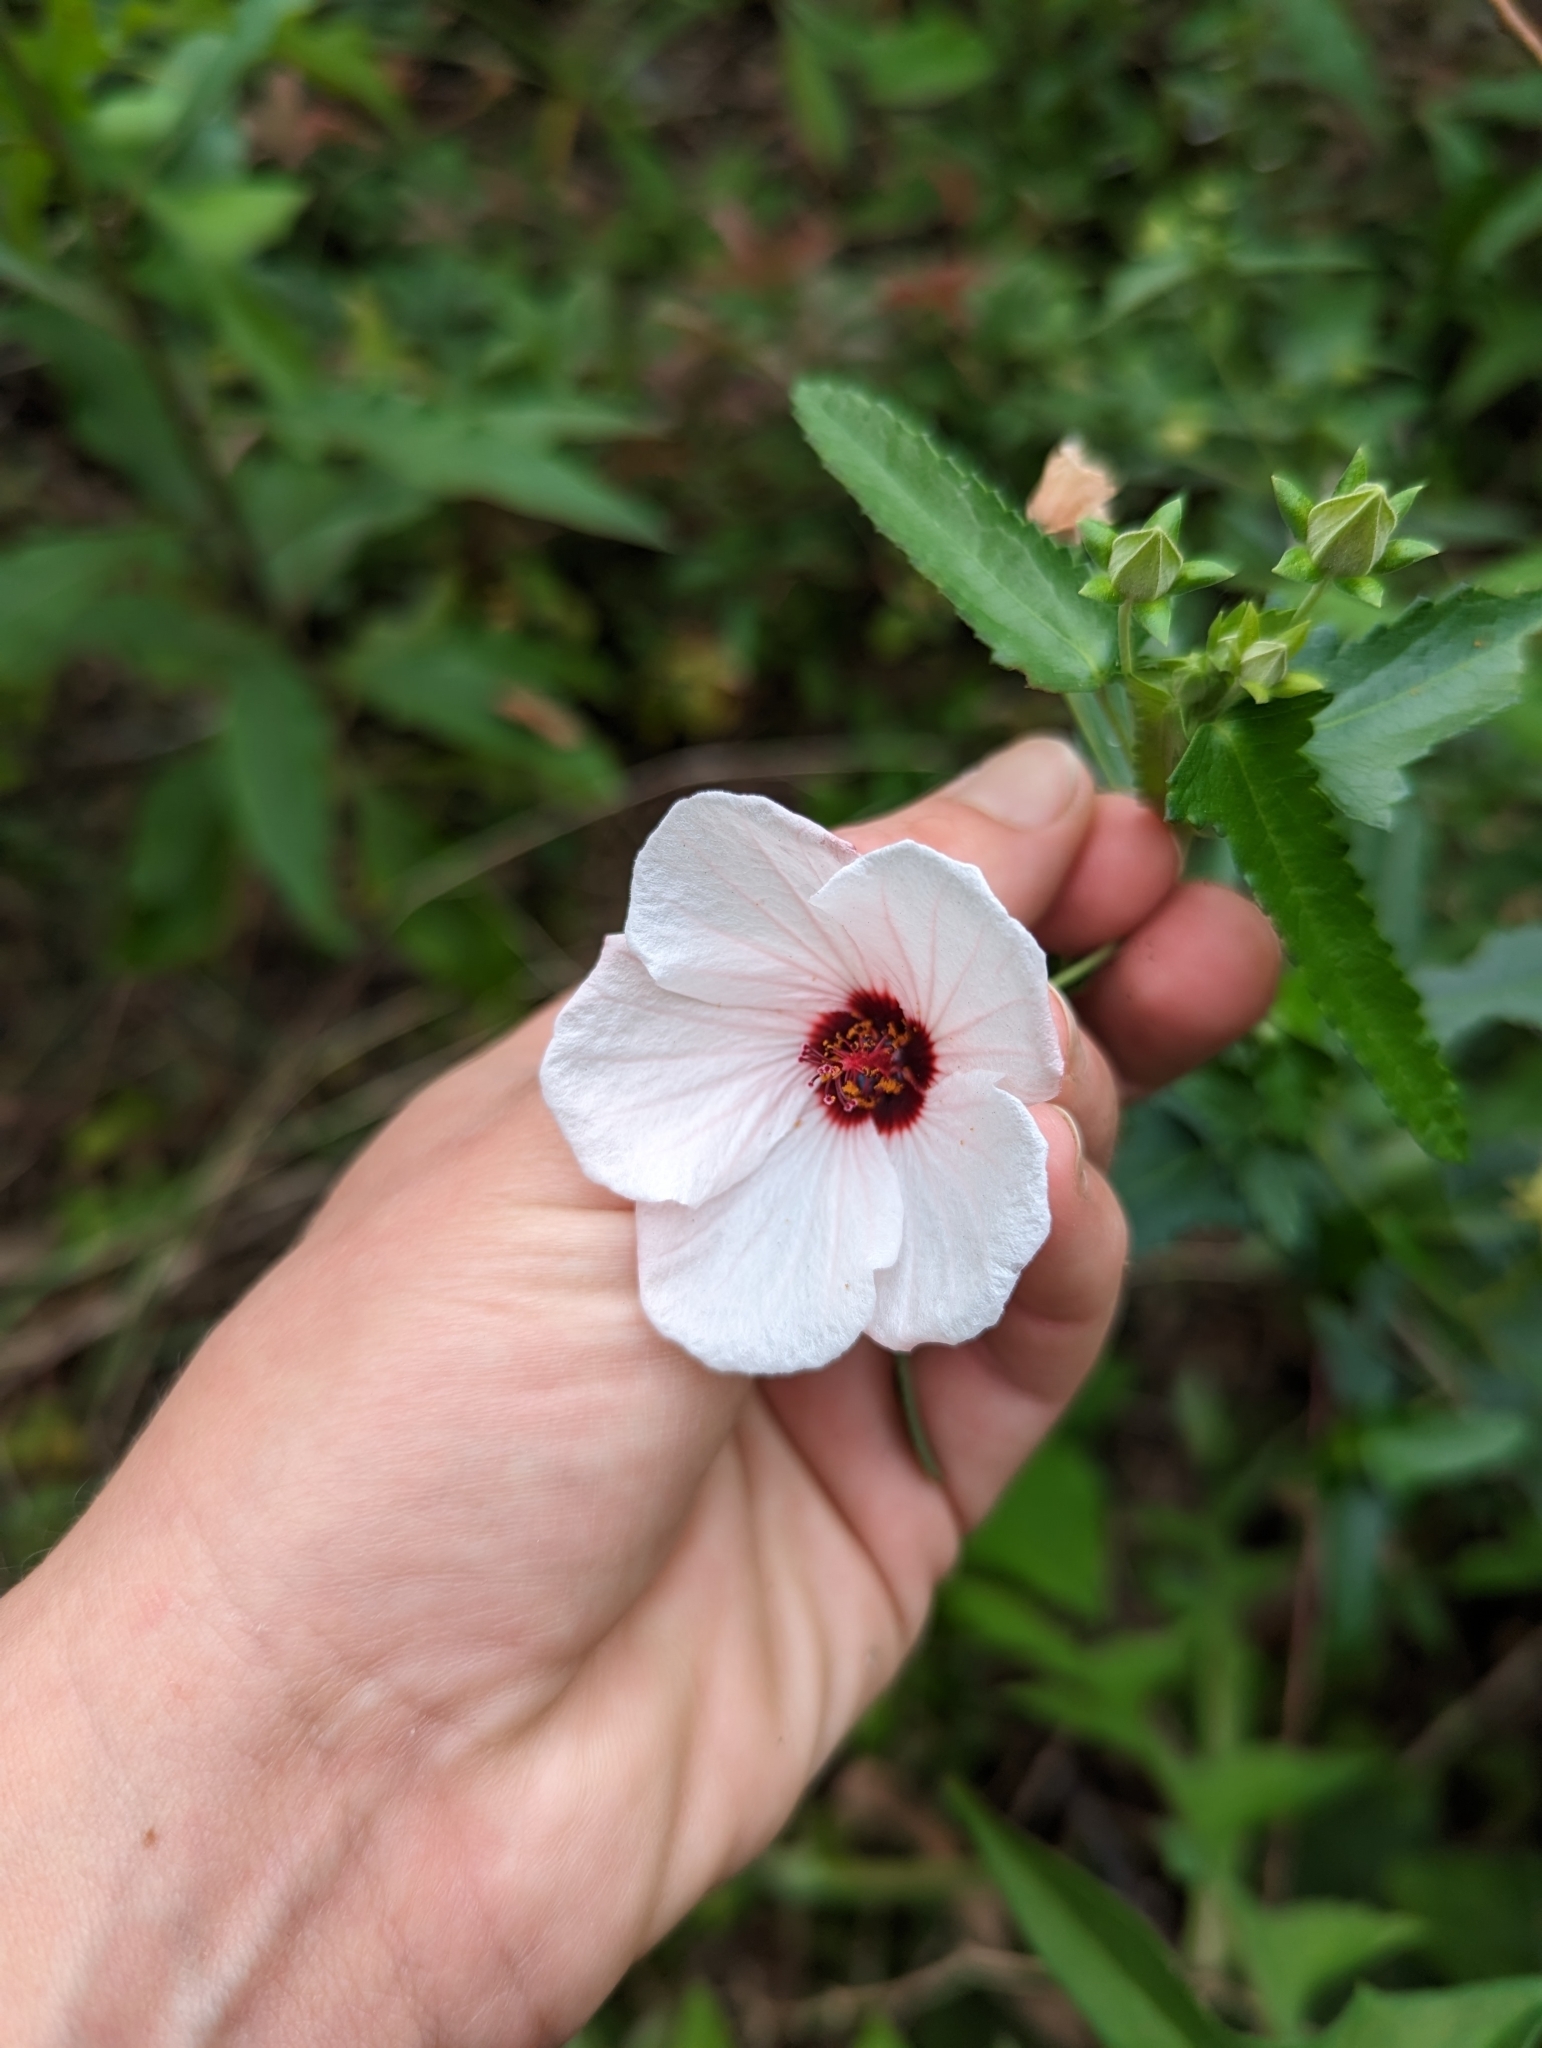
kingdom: Plantae
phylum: Tracheophyta
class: Magnoliopsida
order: Malvales
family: Malvaceae
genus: Pavonia
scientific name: Pavonia hastata
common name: Spearleaf swampmallow
